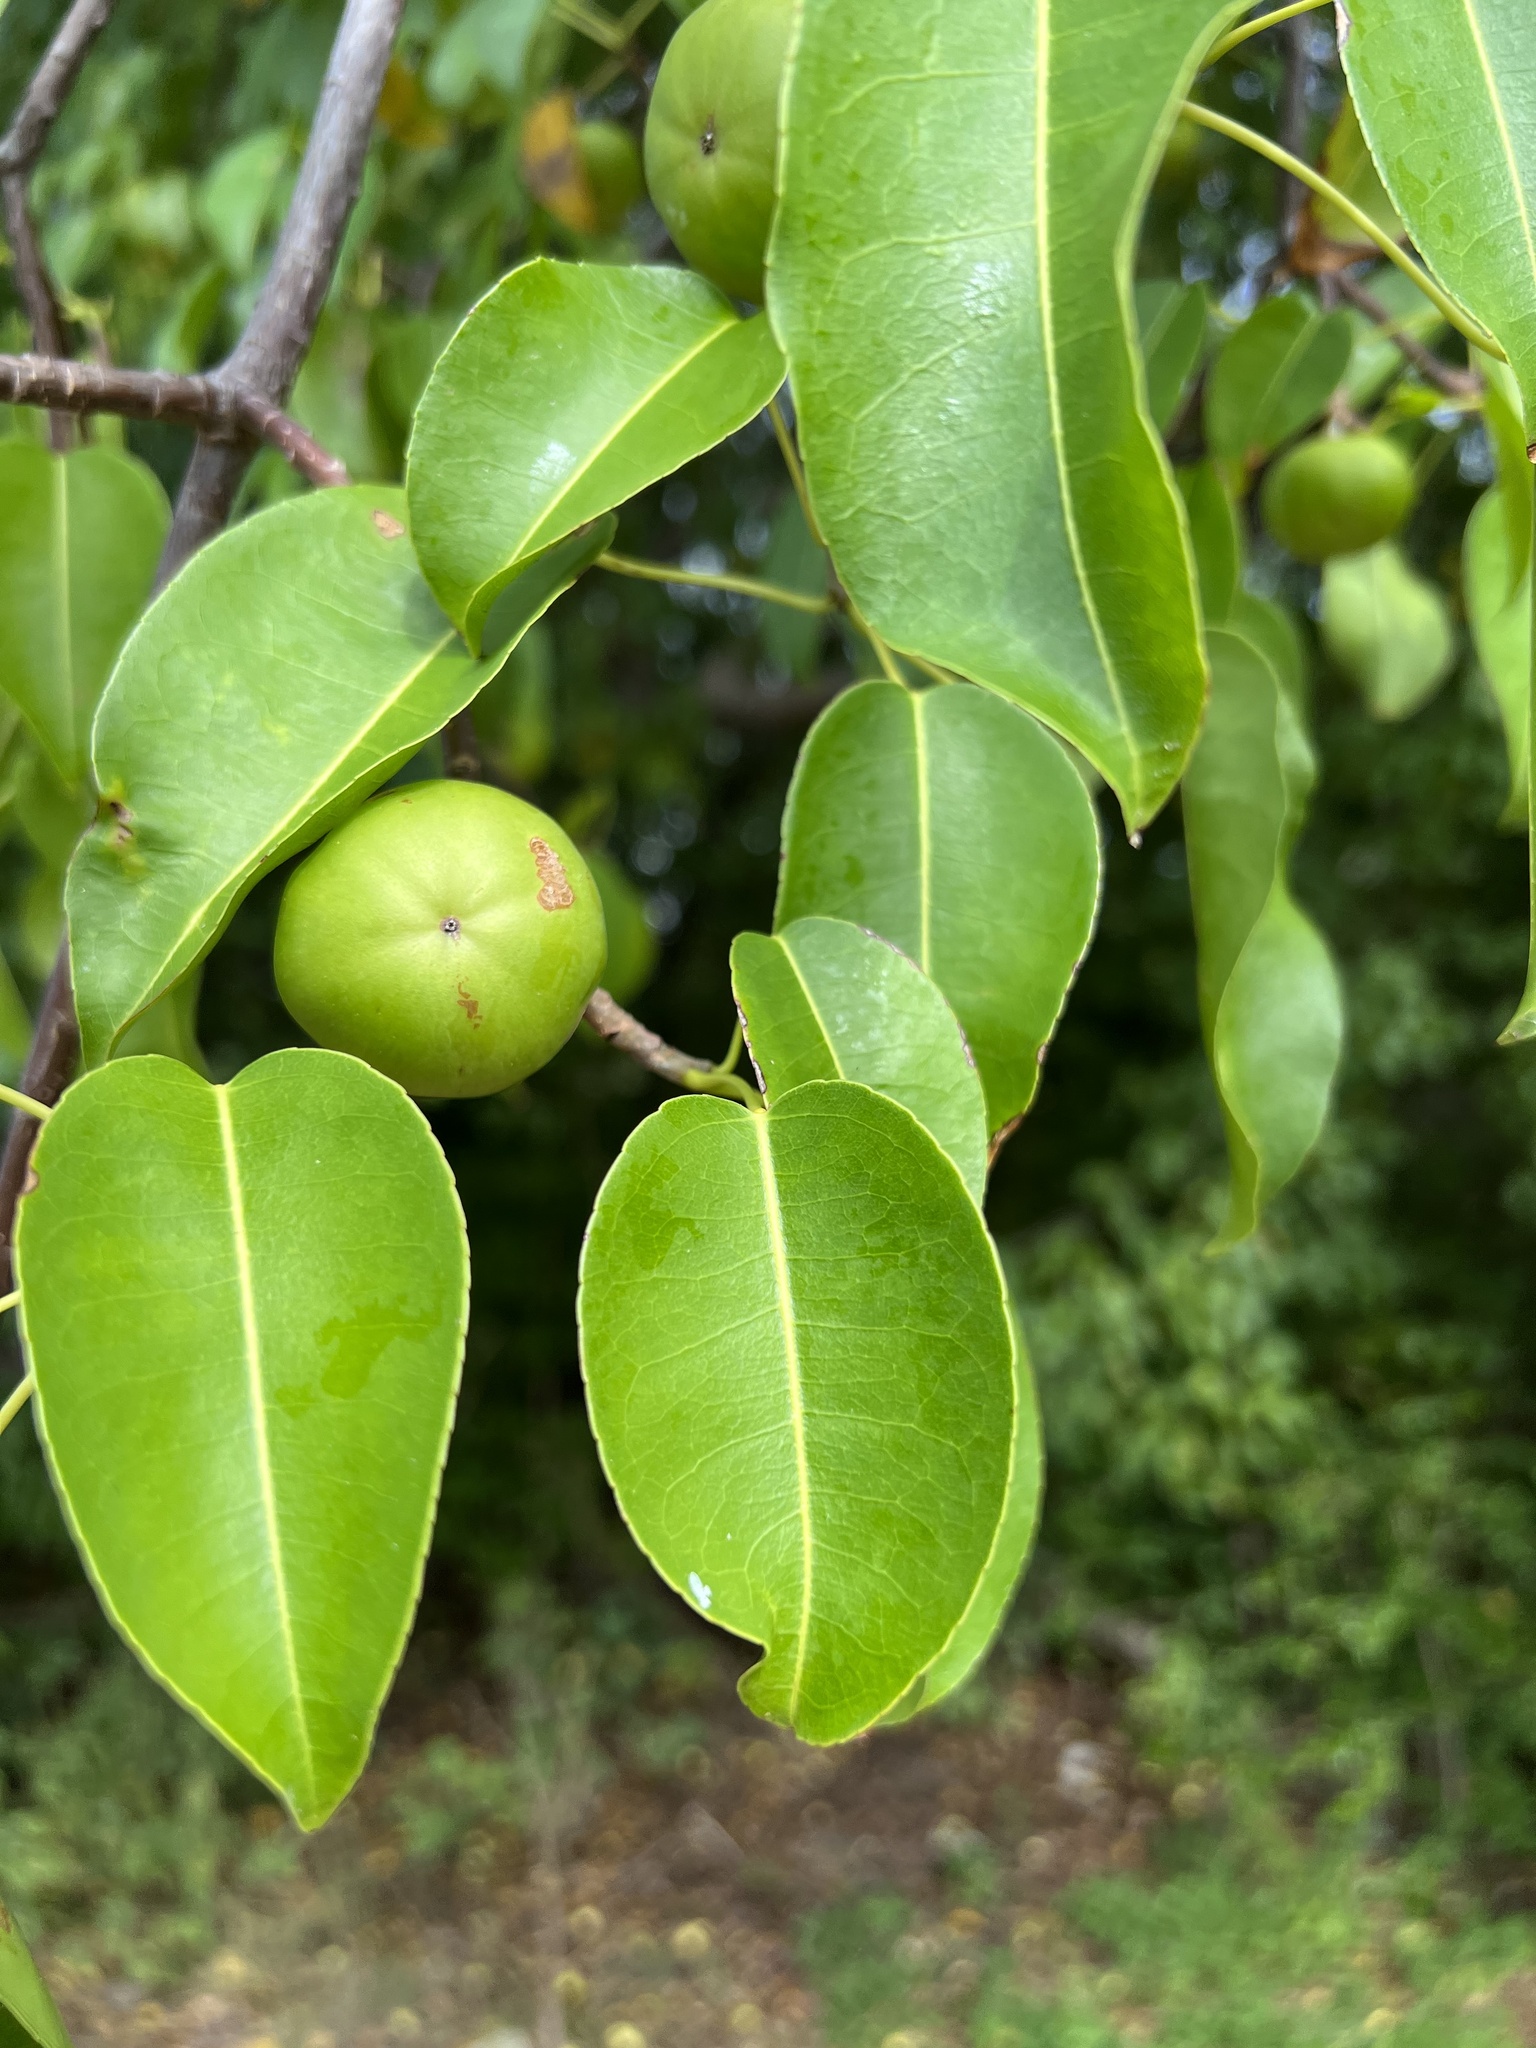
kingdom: Plantae
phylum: Tracheophyta
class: Magnoliopsida
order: Malpighiales
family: Euphorbiaceae
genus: Hippomane
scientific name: Hippomane mancinella
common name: Manchineel
